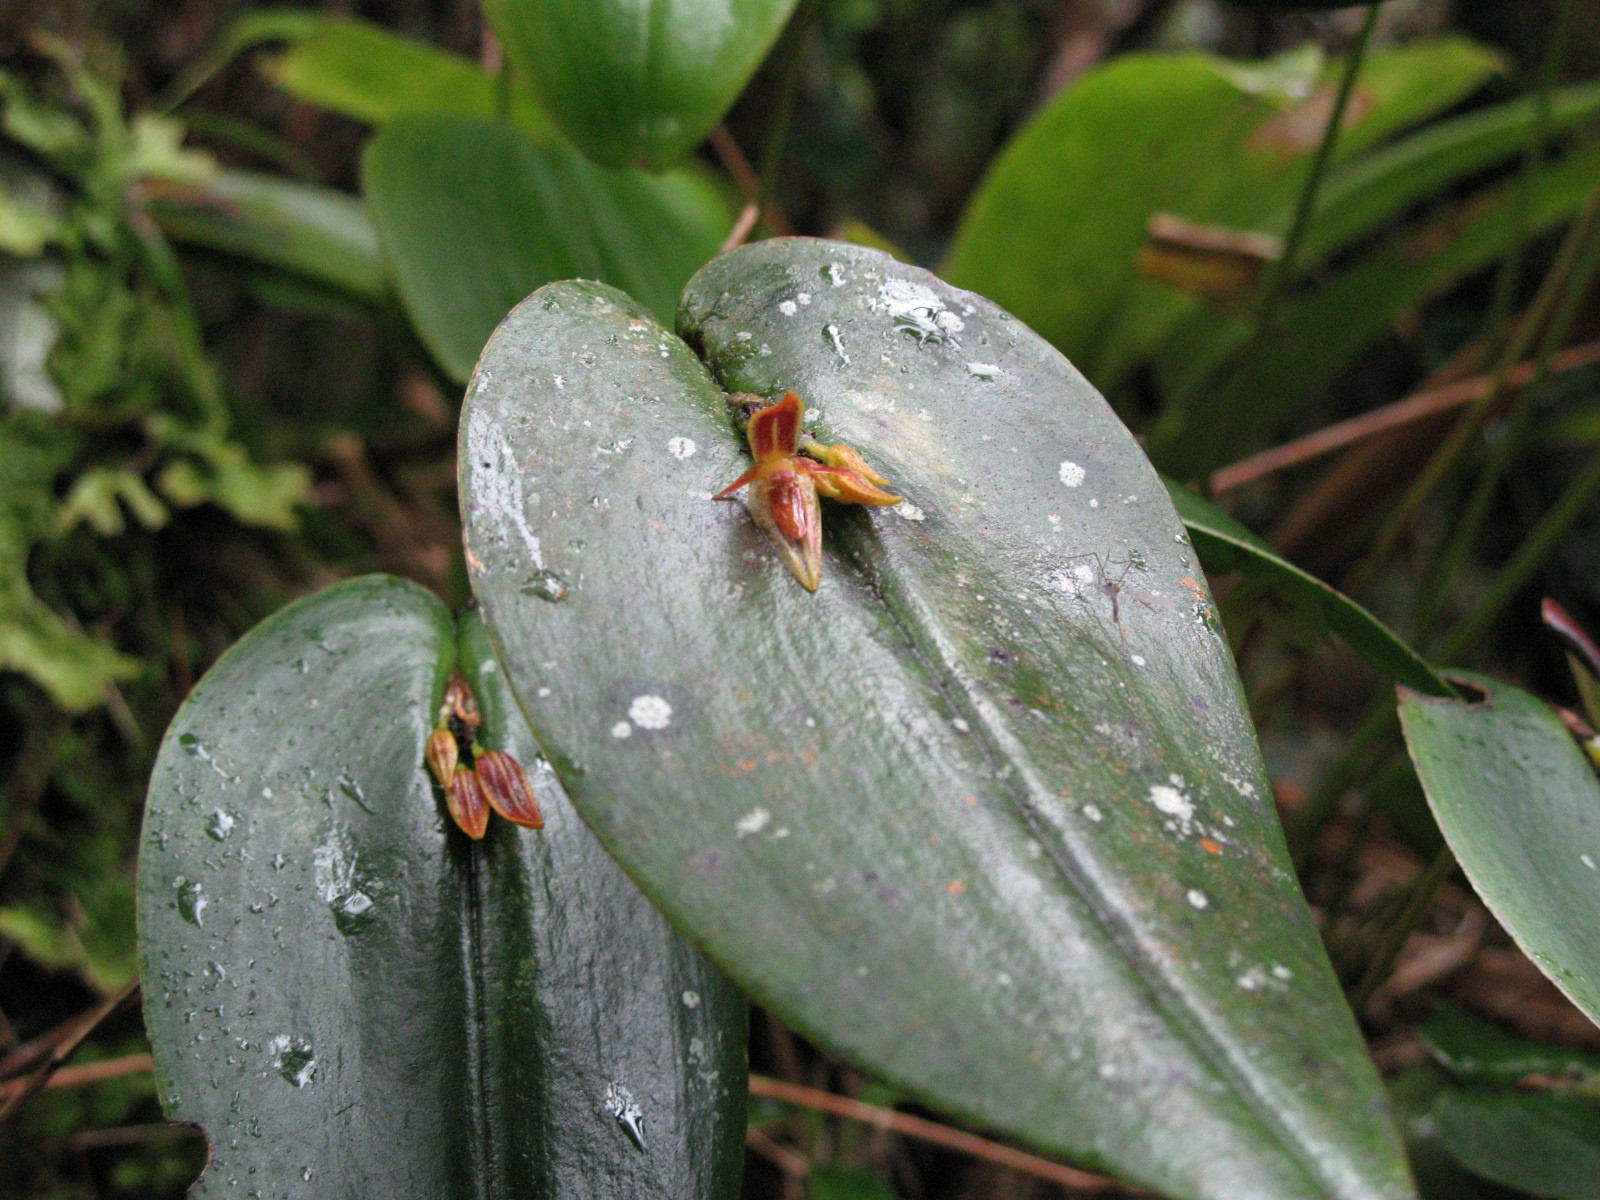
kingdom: Plantae
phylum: Tracheophyta
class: Liliopsida
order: Asparagales
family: Orchidaceae
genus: Pleurothallis
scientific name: Pleurothallis coriacardia
